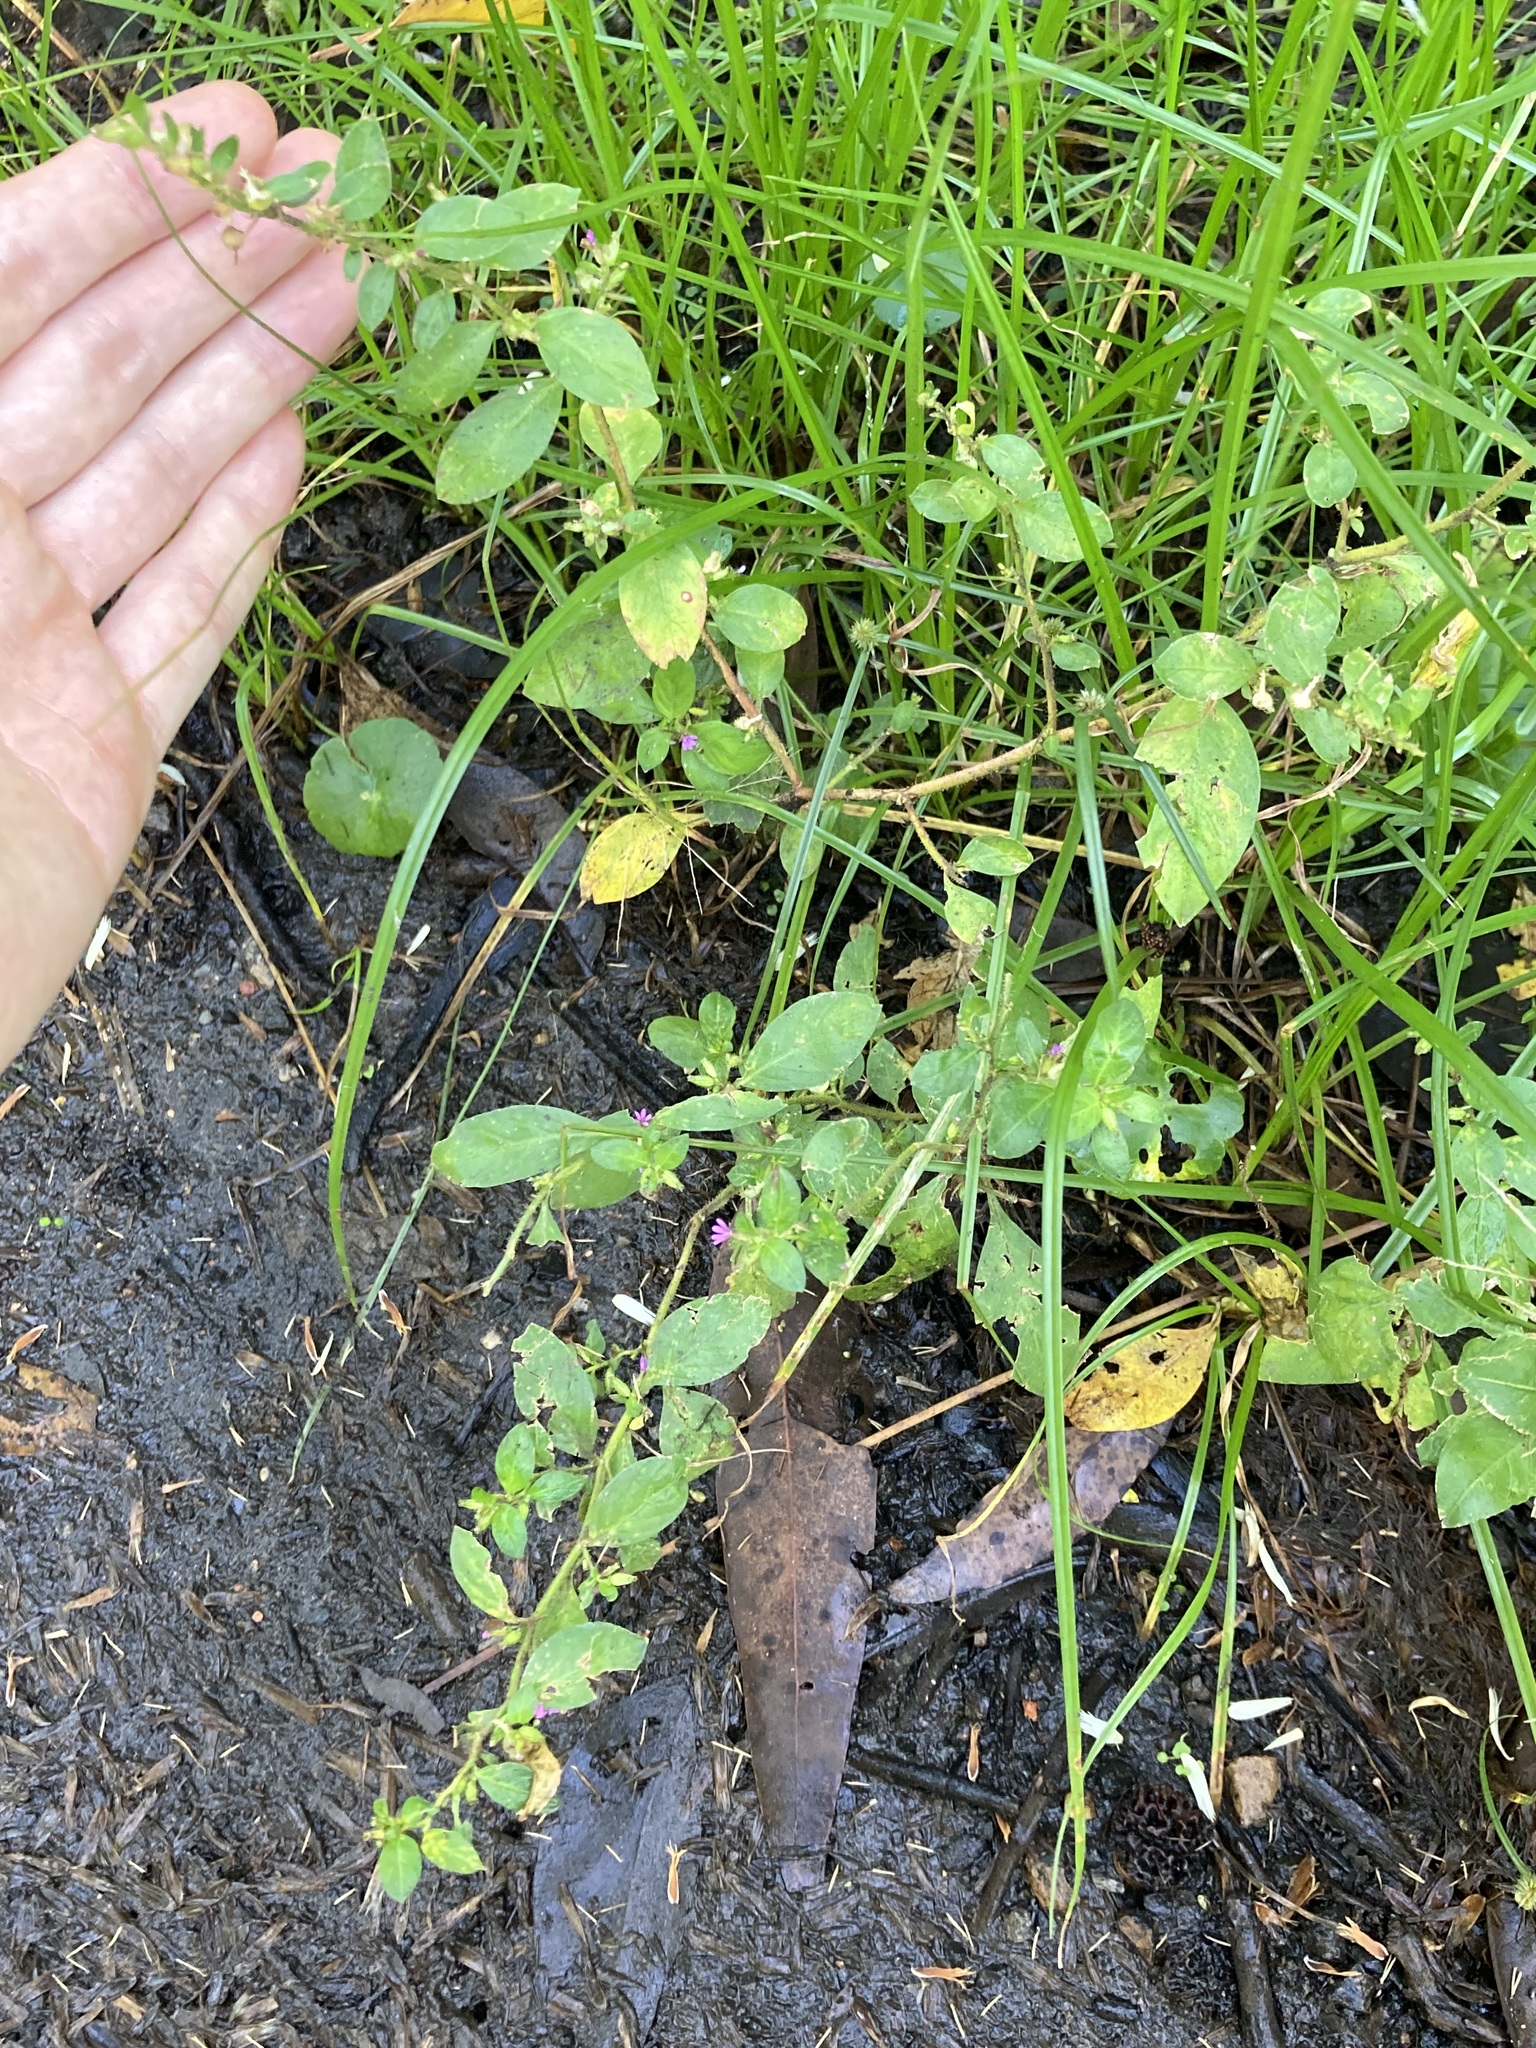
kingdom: Plantae
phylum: Tracheophyta
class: Magnoliopsida
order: Myrtales
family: Lythraceae
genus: Cuphea
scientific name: Cuphea carthagenensis
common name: Colombian waxweed
